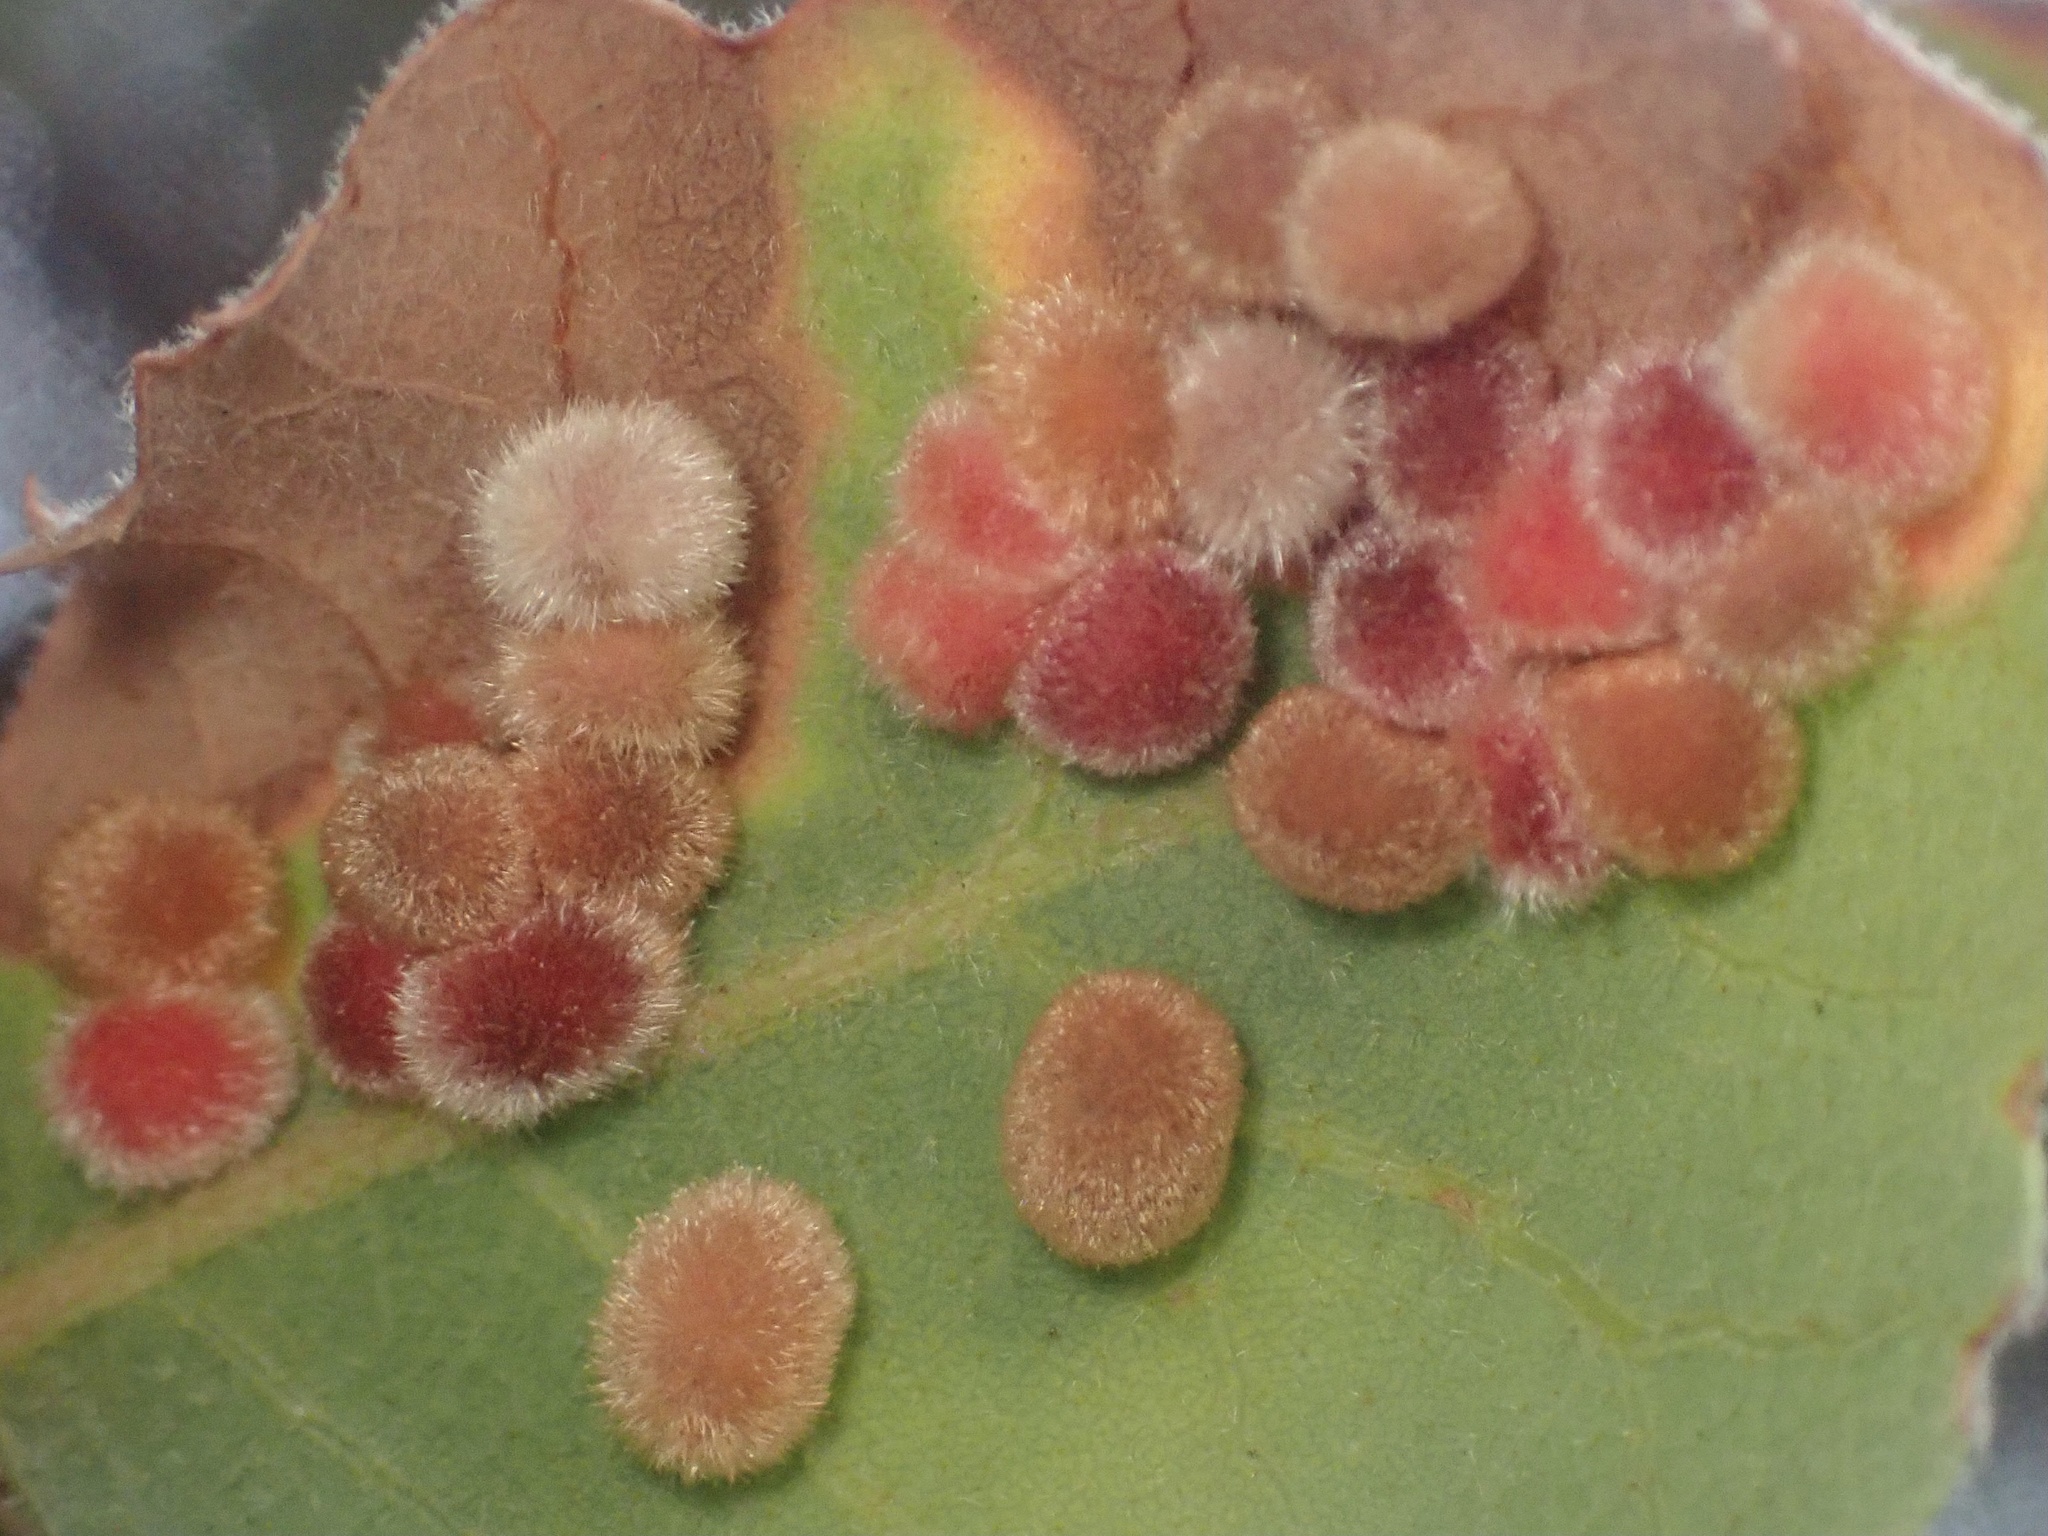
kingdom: Animalia
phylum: Arthropoda
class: Insecta
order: Hymenoptera
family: Cynipidae
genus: Atrusca
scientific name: Atrusca
